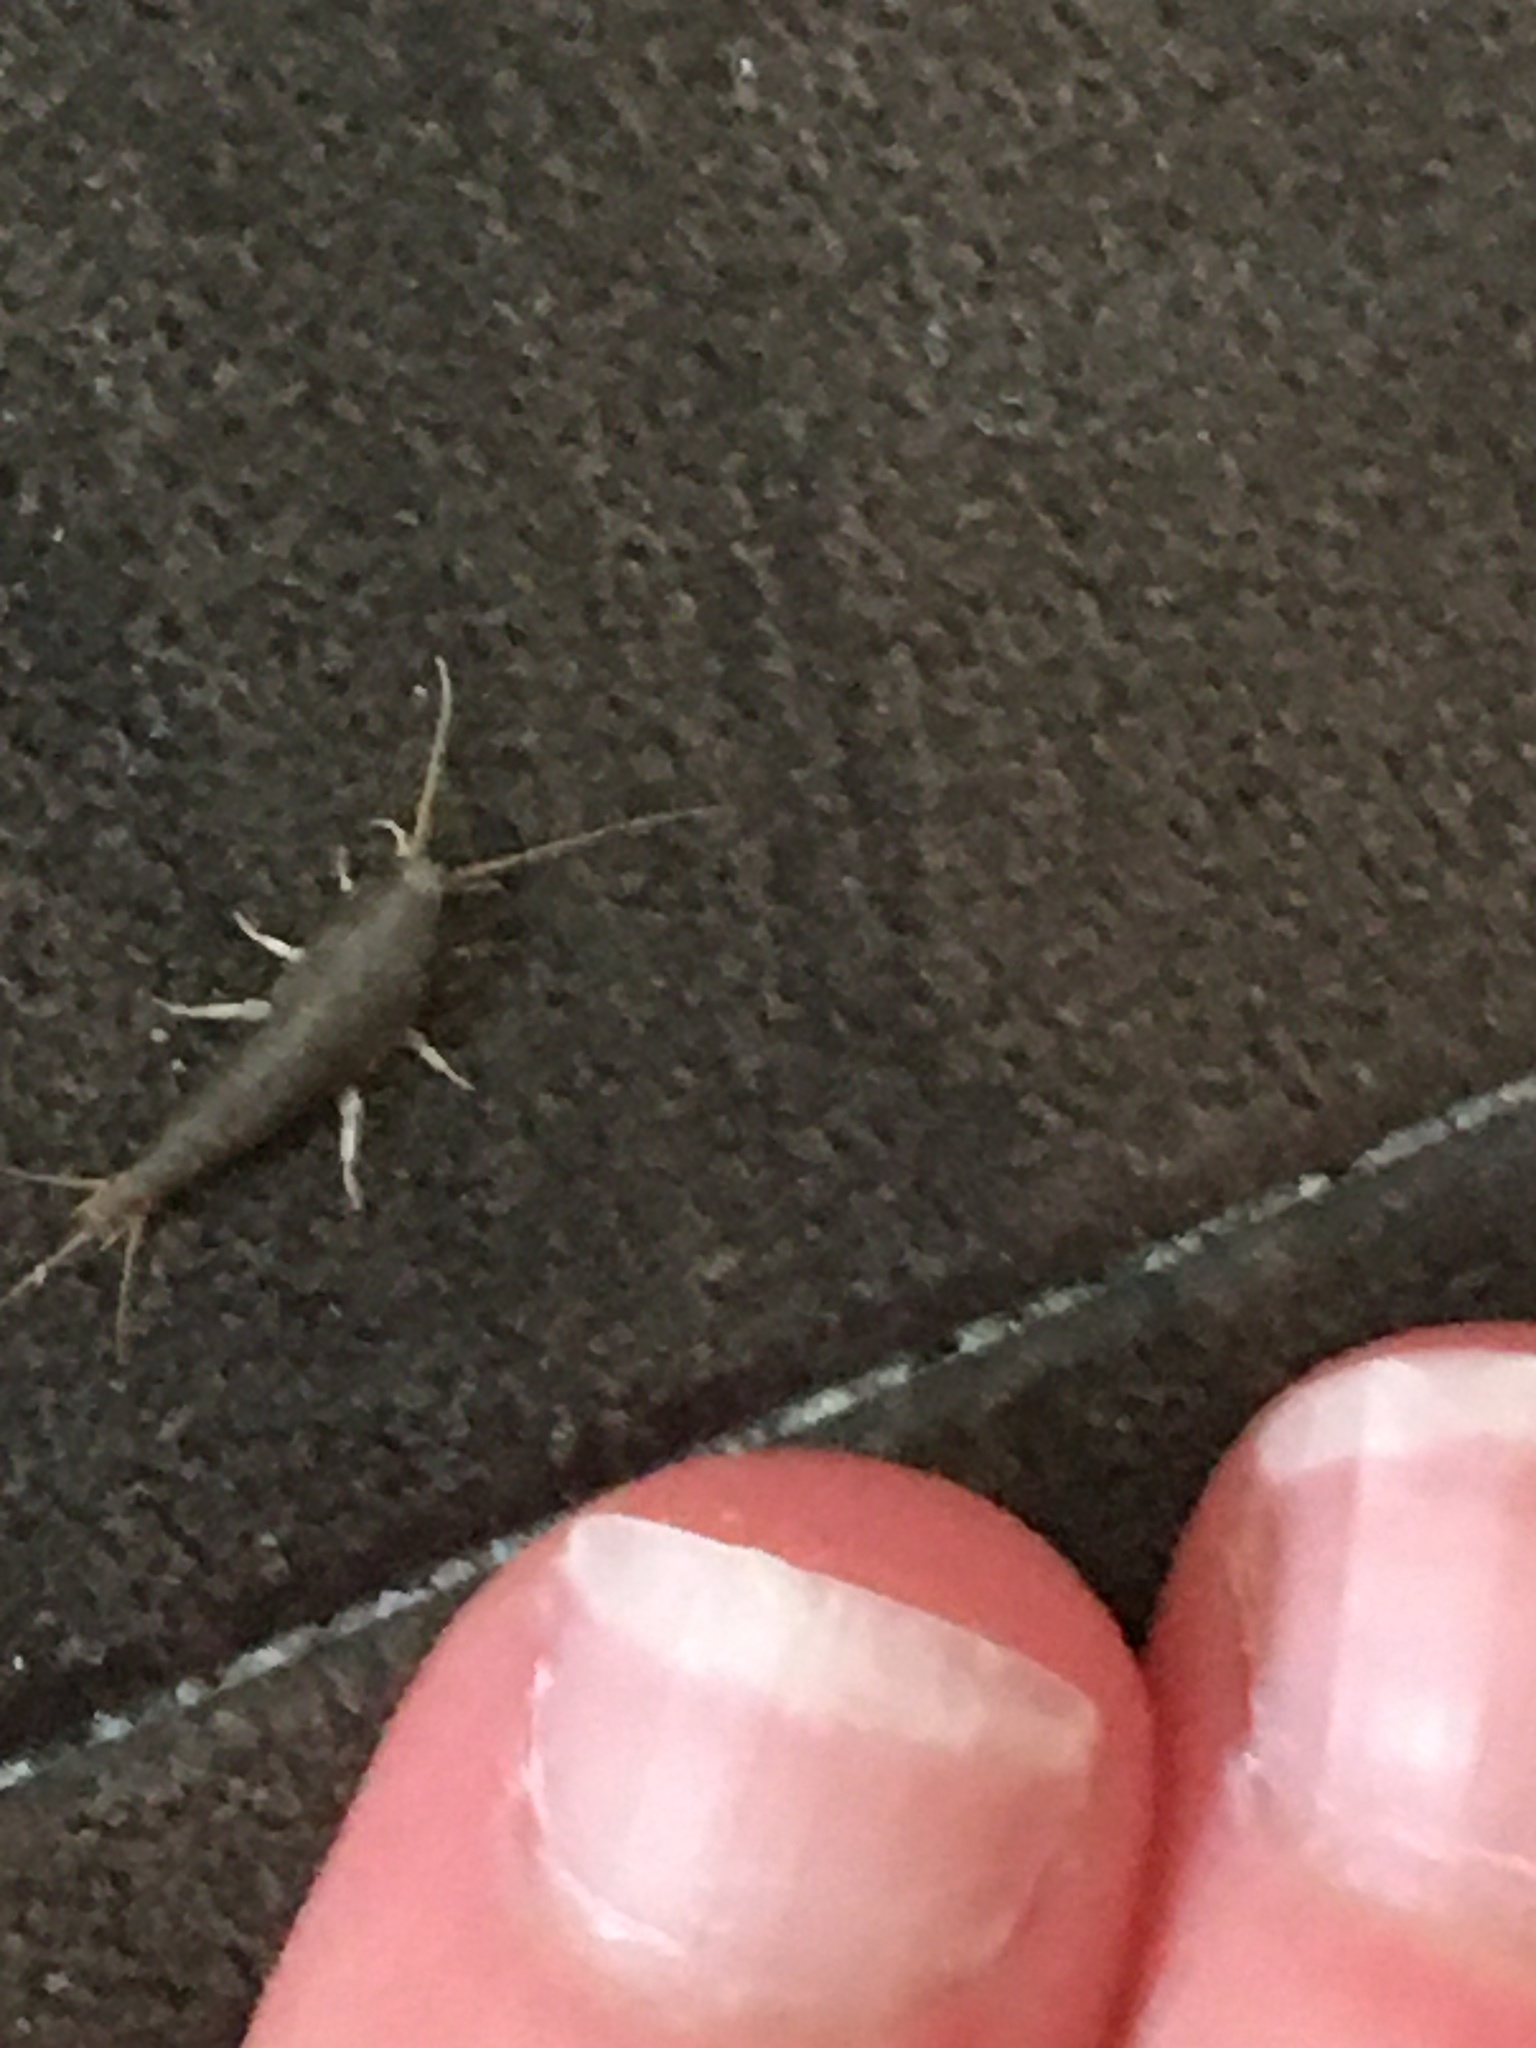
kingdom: Animalia
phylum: Arthropoda
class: Insecta
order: Zygentoma
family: Lepismatidae
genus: Lepisma
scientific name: Lepisma saccharinum
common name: Silverfish
